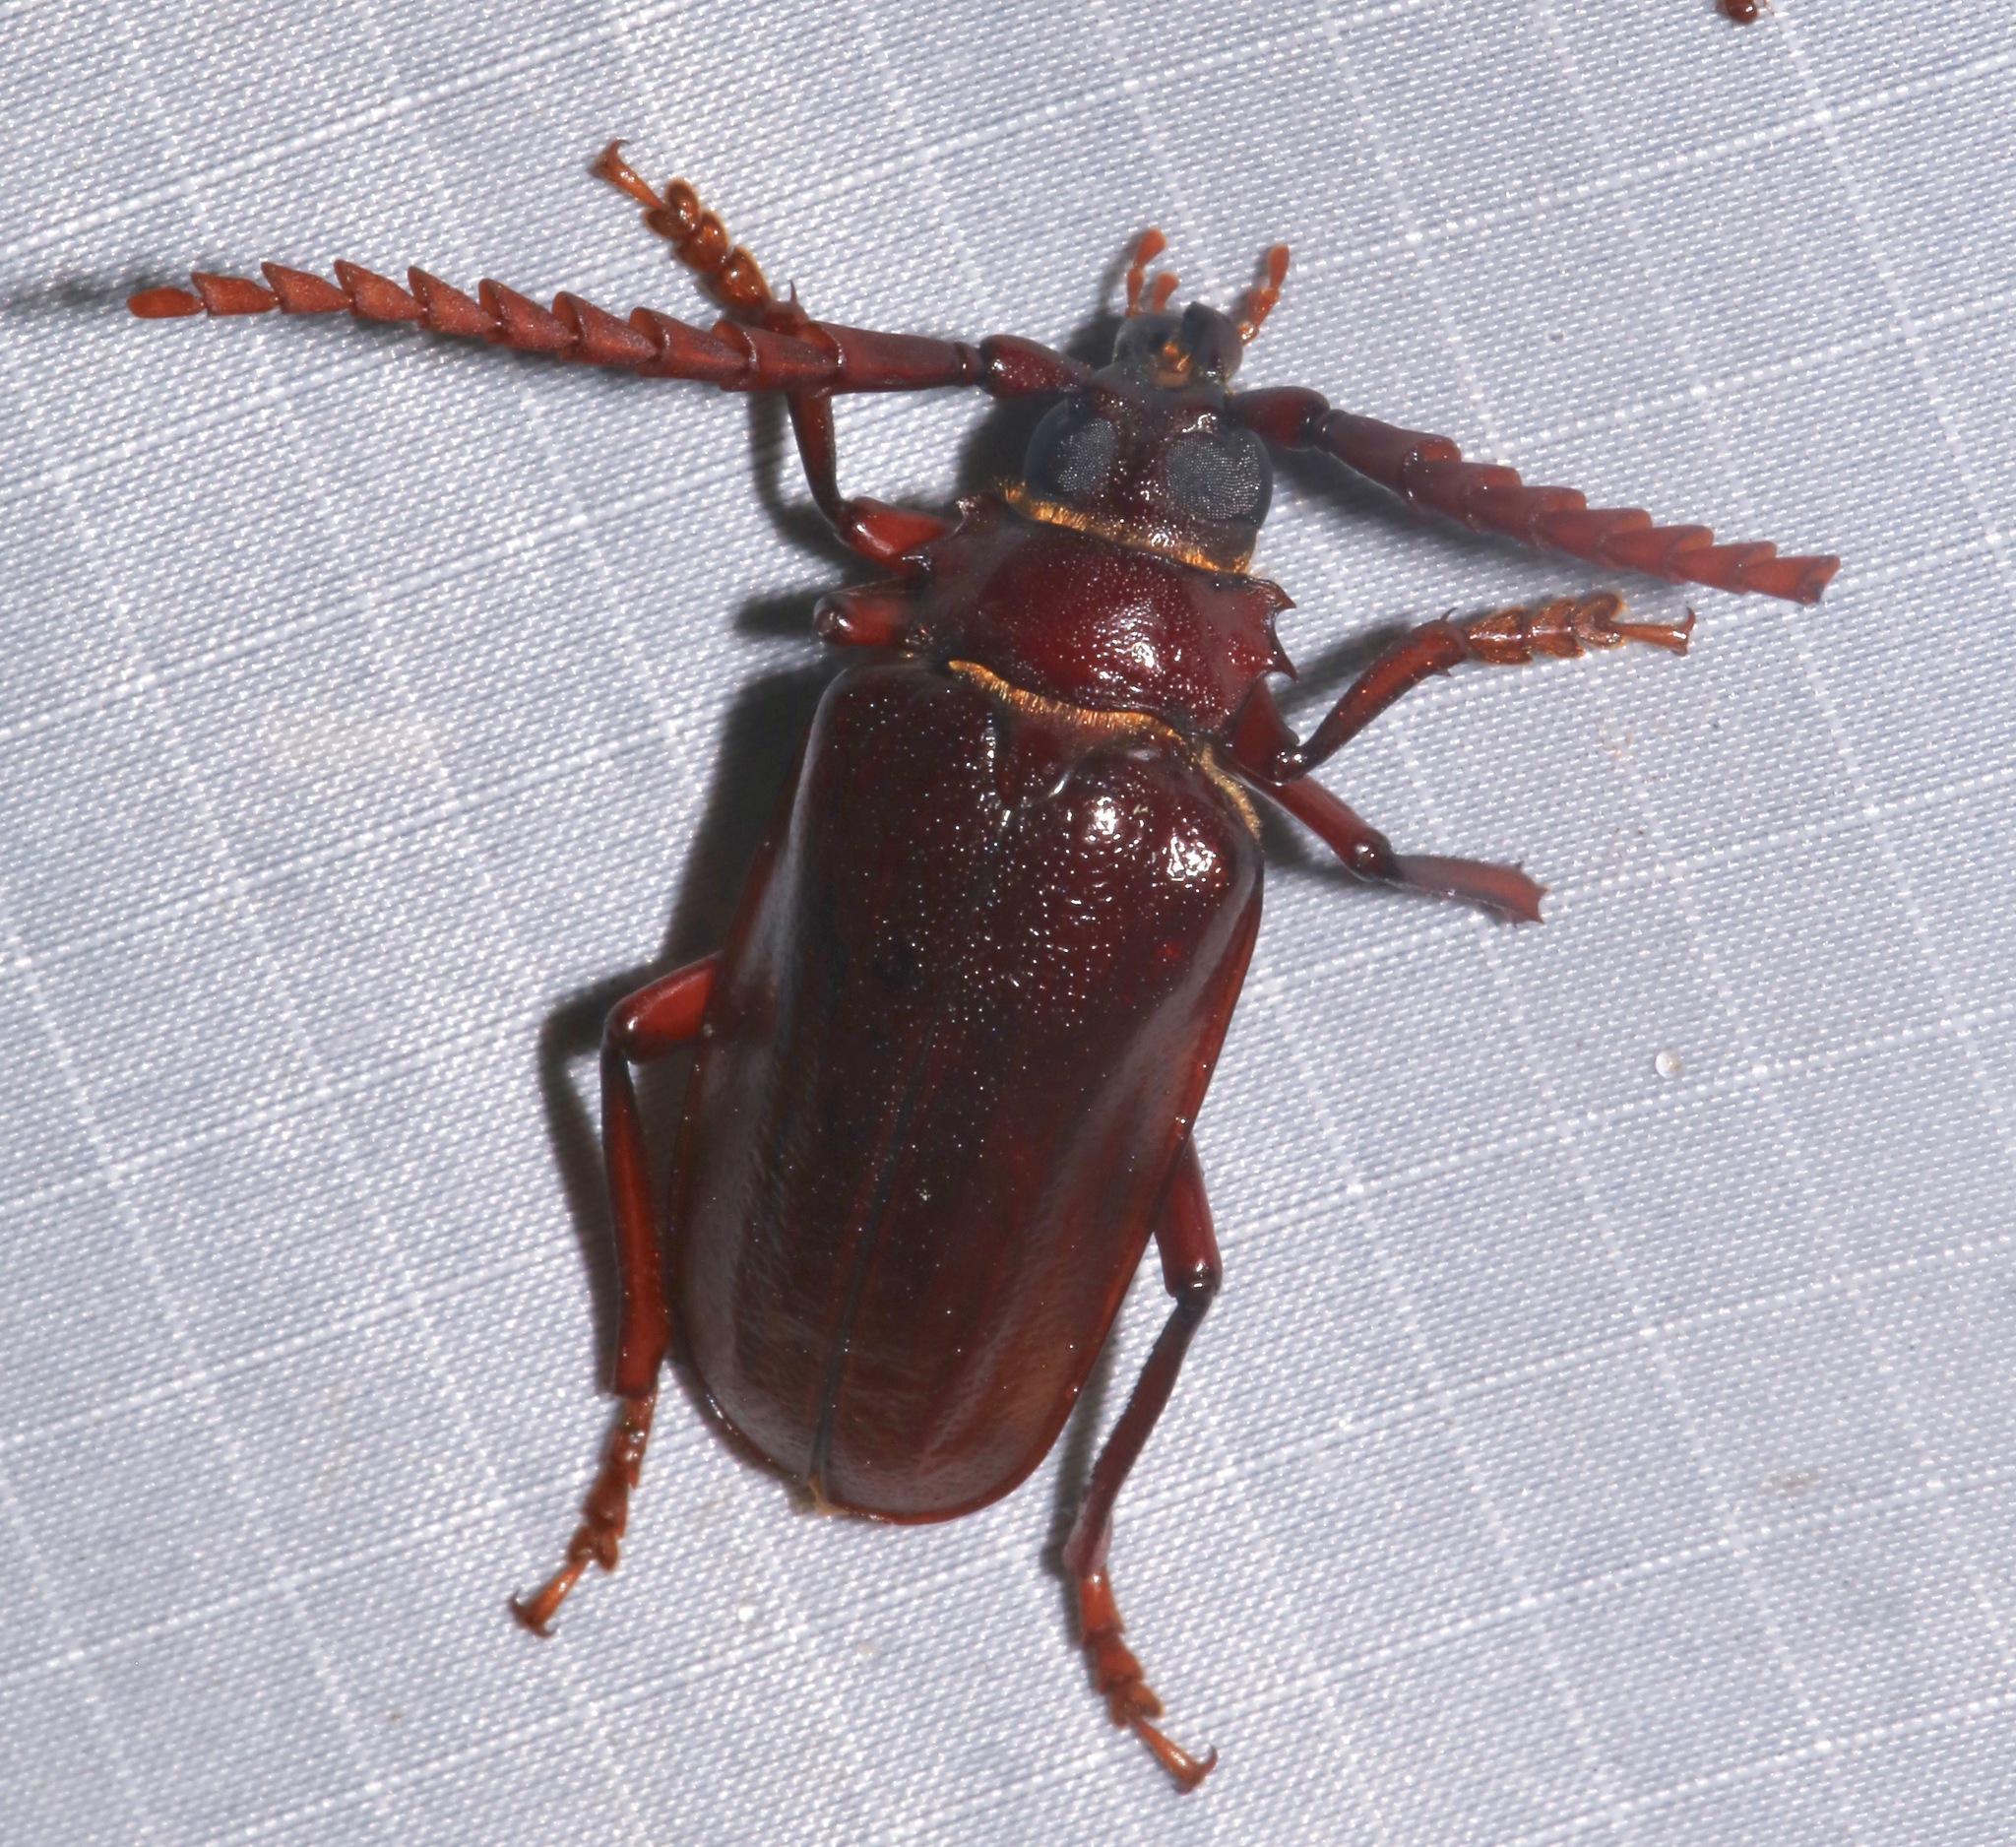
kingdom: Animalia
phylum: Arthropoda
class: Insecta
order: Coleoptera
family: Cerambycidae
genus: Prionus
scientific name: Prionus pocularis
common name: Tooth-necked longhorn beetle
